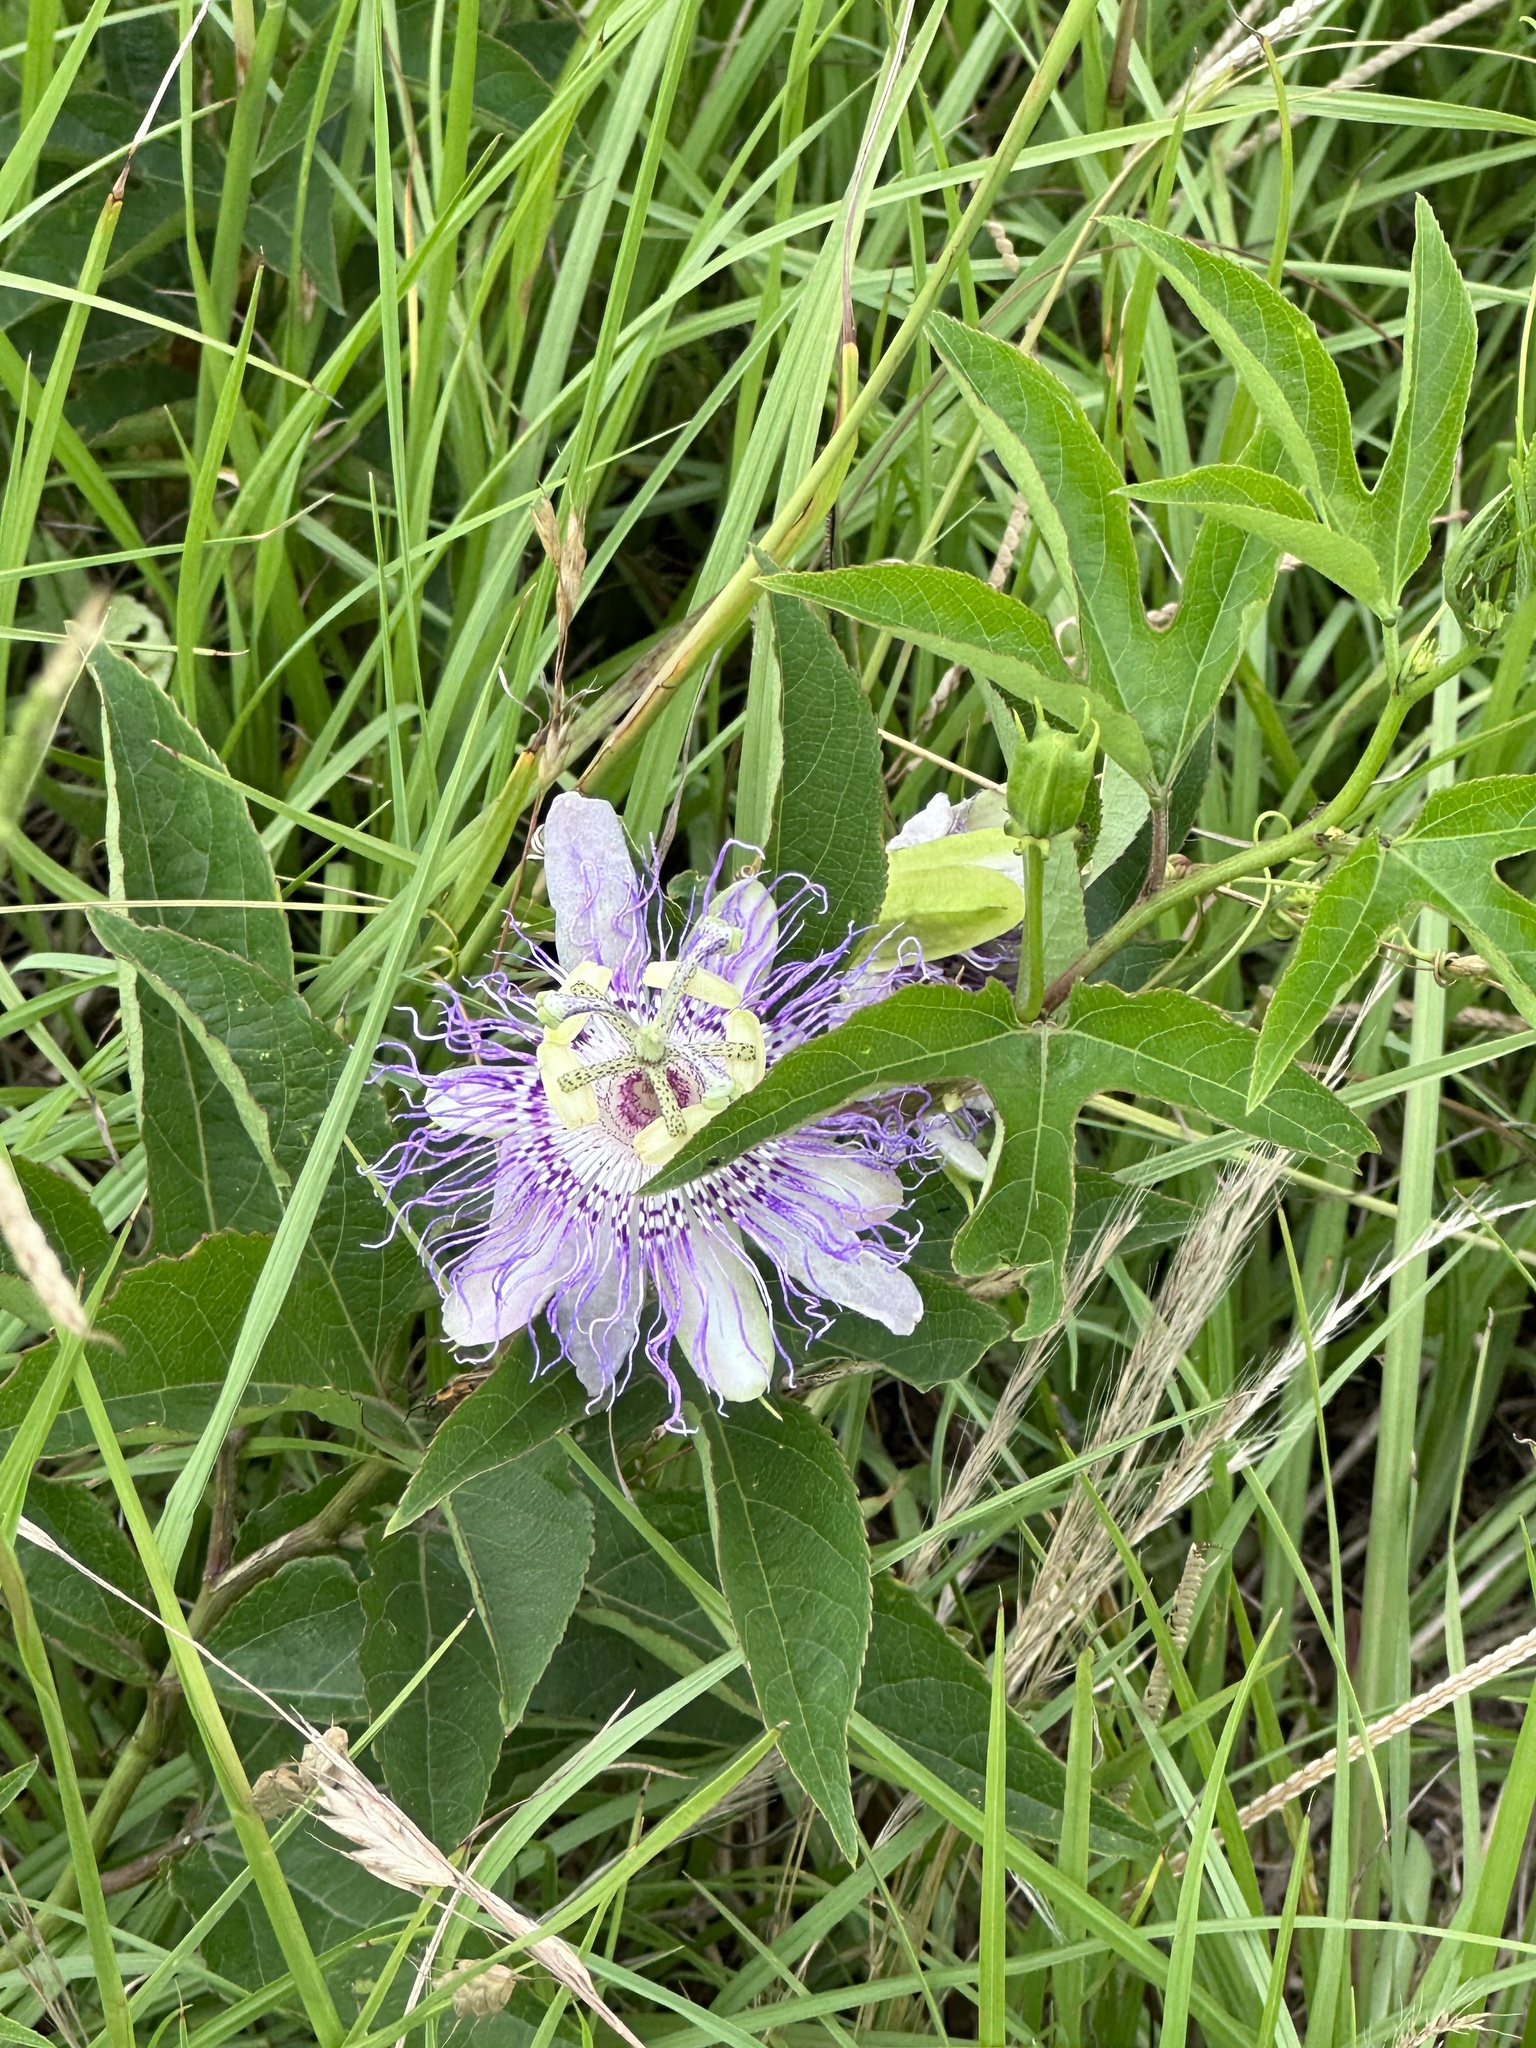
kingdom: Plantae
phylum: Tracheophyta
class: Magnoliopsida
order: Malpighiales
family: Passifloraceae
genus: Passiflora
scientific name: Passiflora incarnata
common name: Apricot-vine
